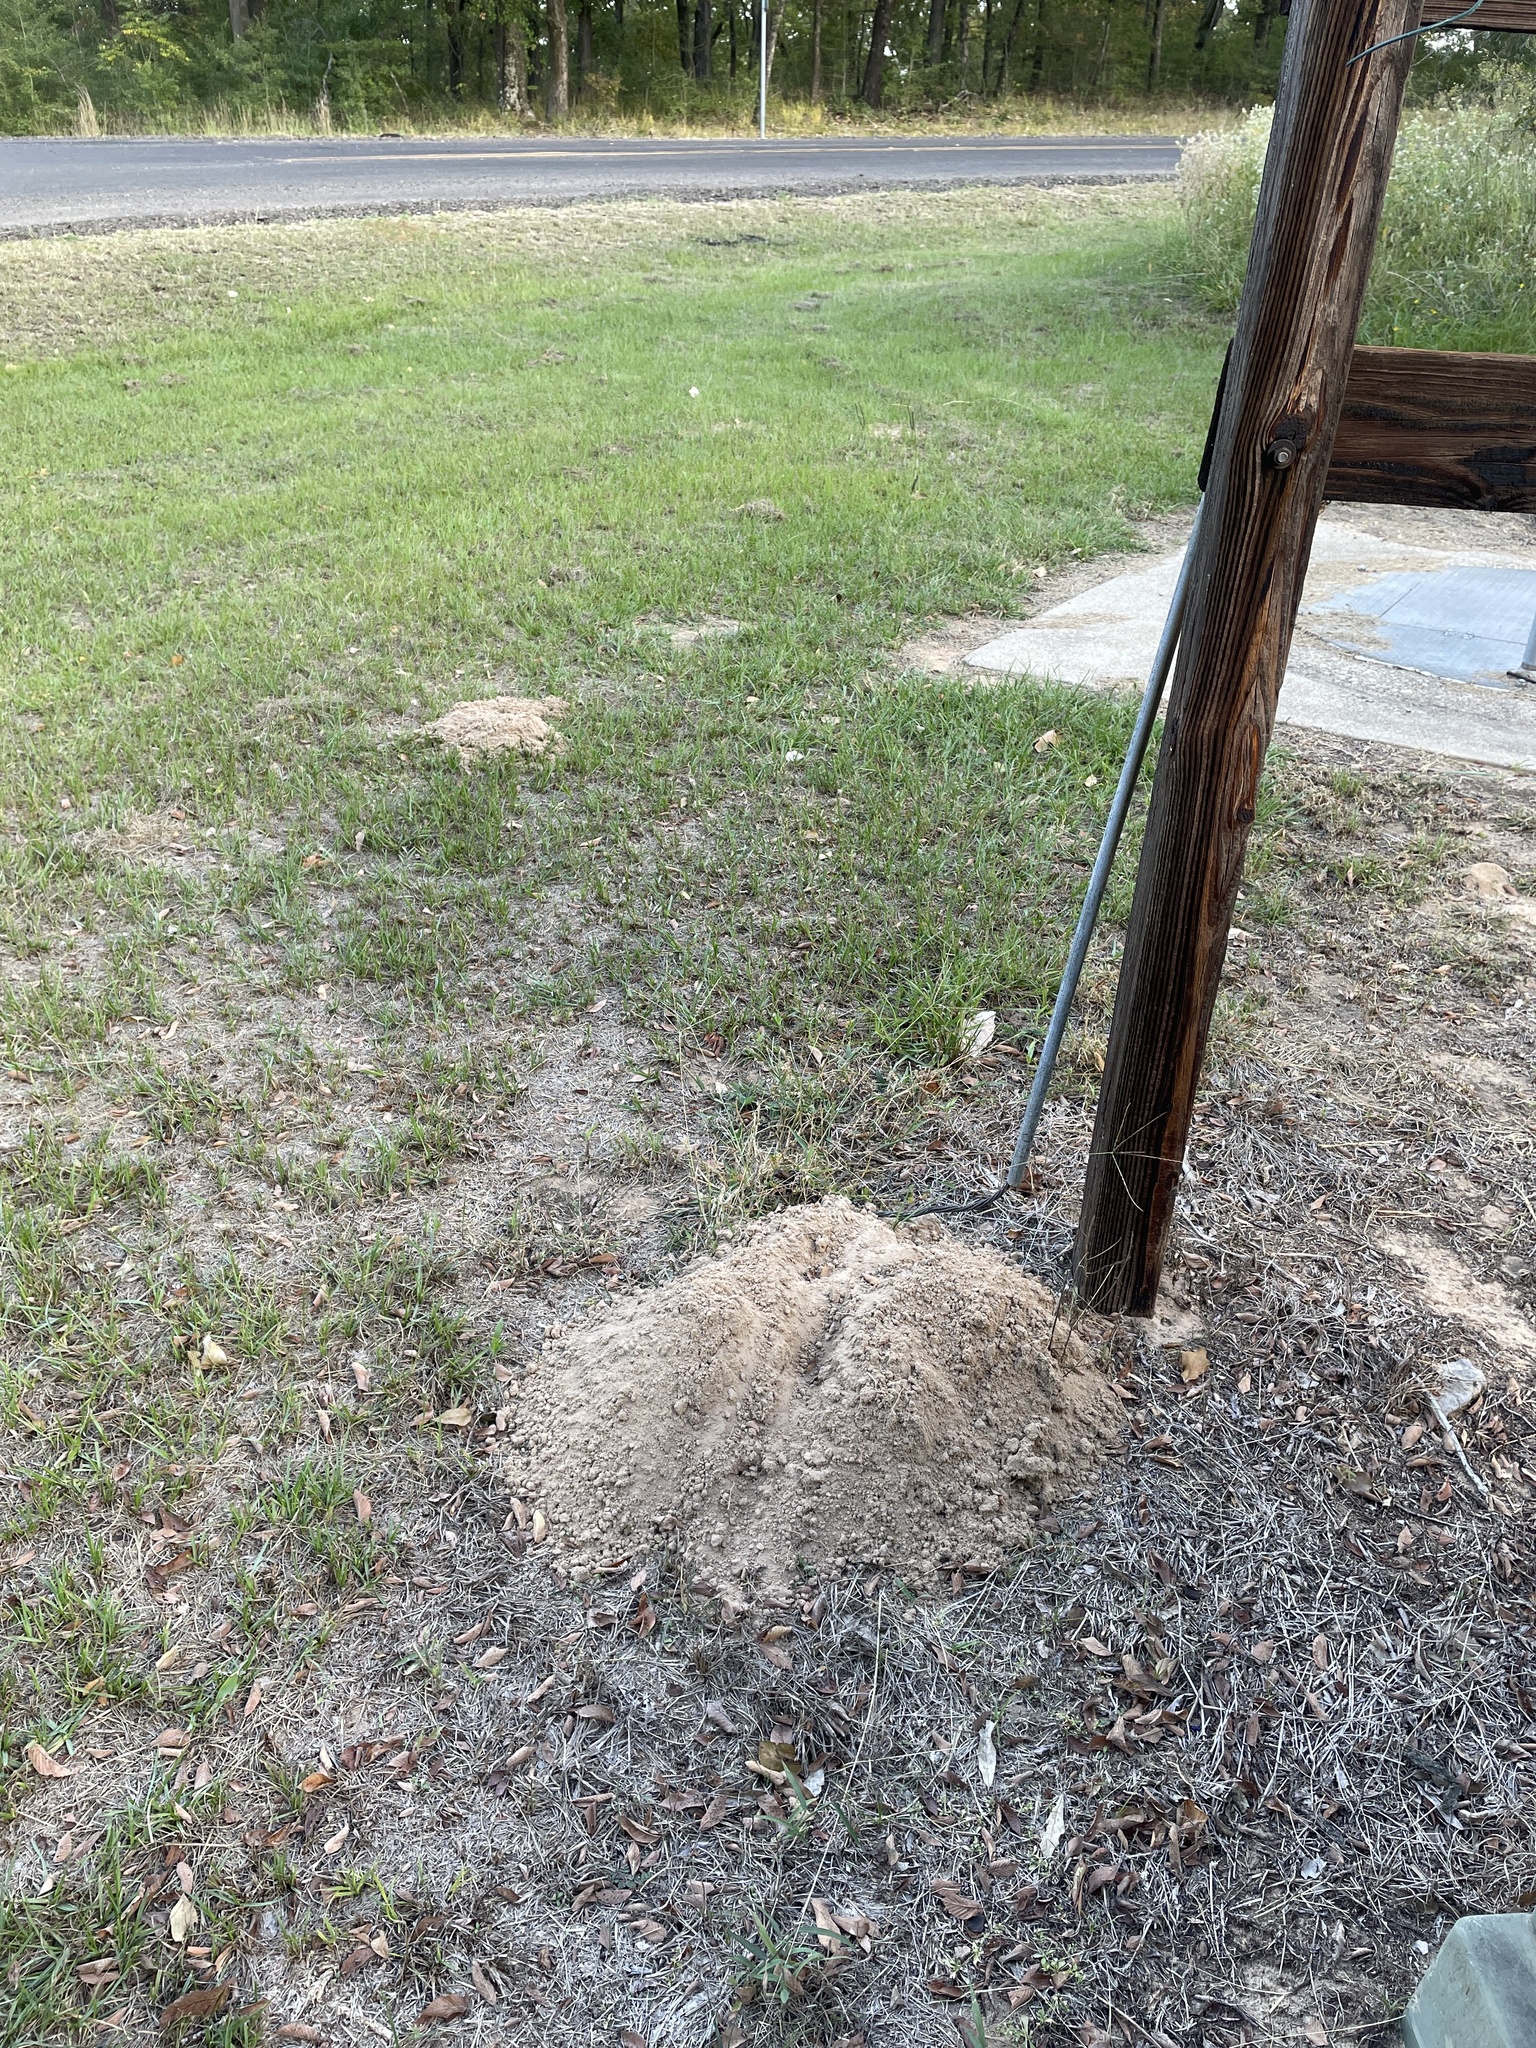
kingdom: Animalia
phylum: Chordata
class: Mammalia
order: Rodentia
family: Geomyidae
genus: Geomys
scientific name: Geomys breviceps
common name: Baird's pocket gopher
